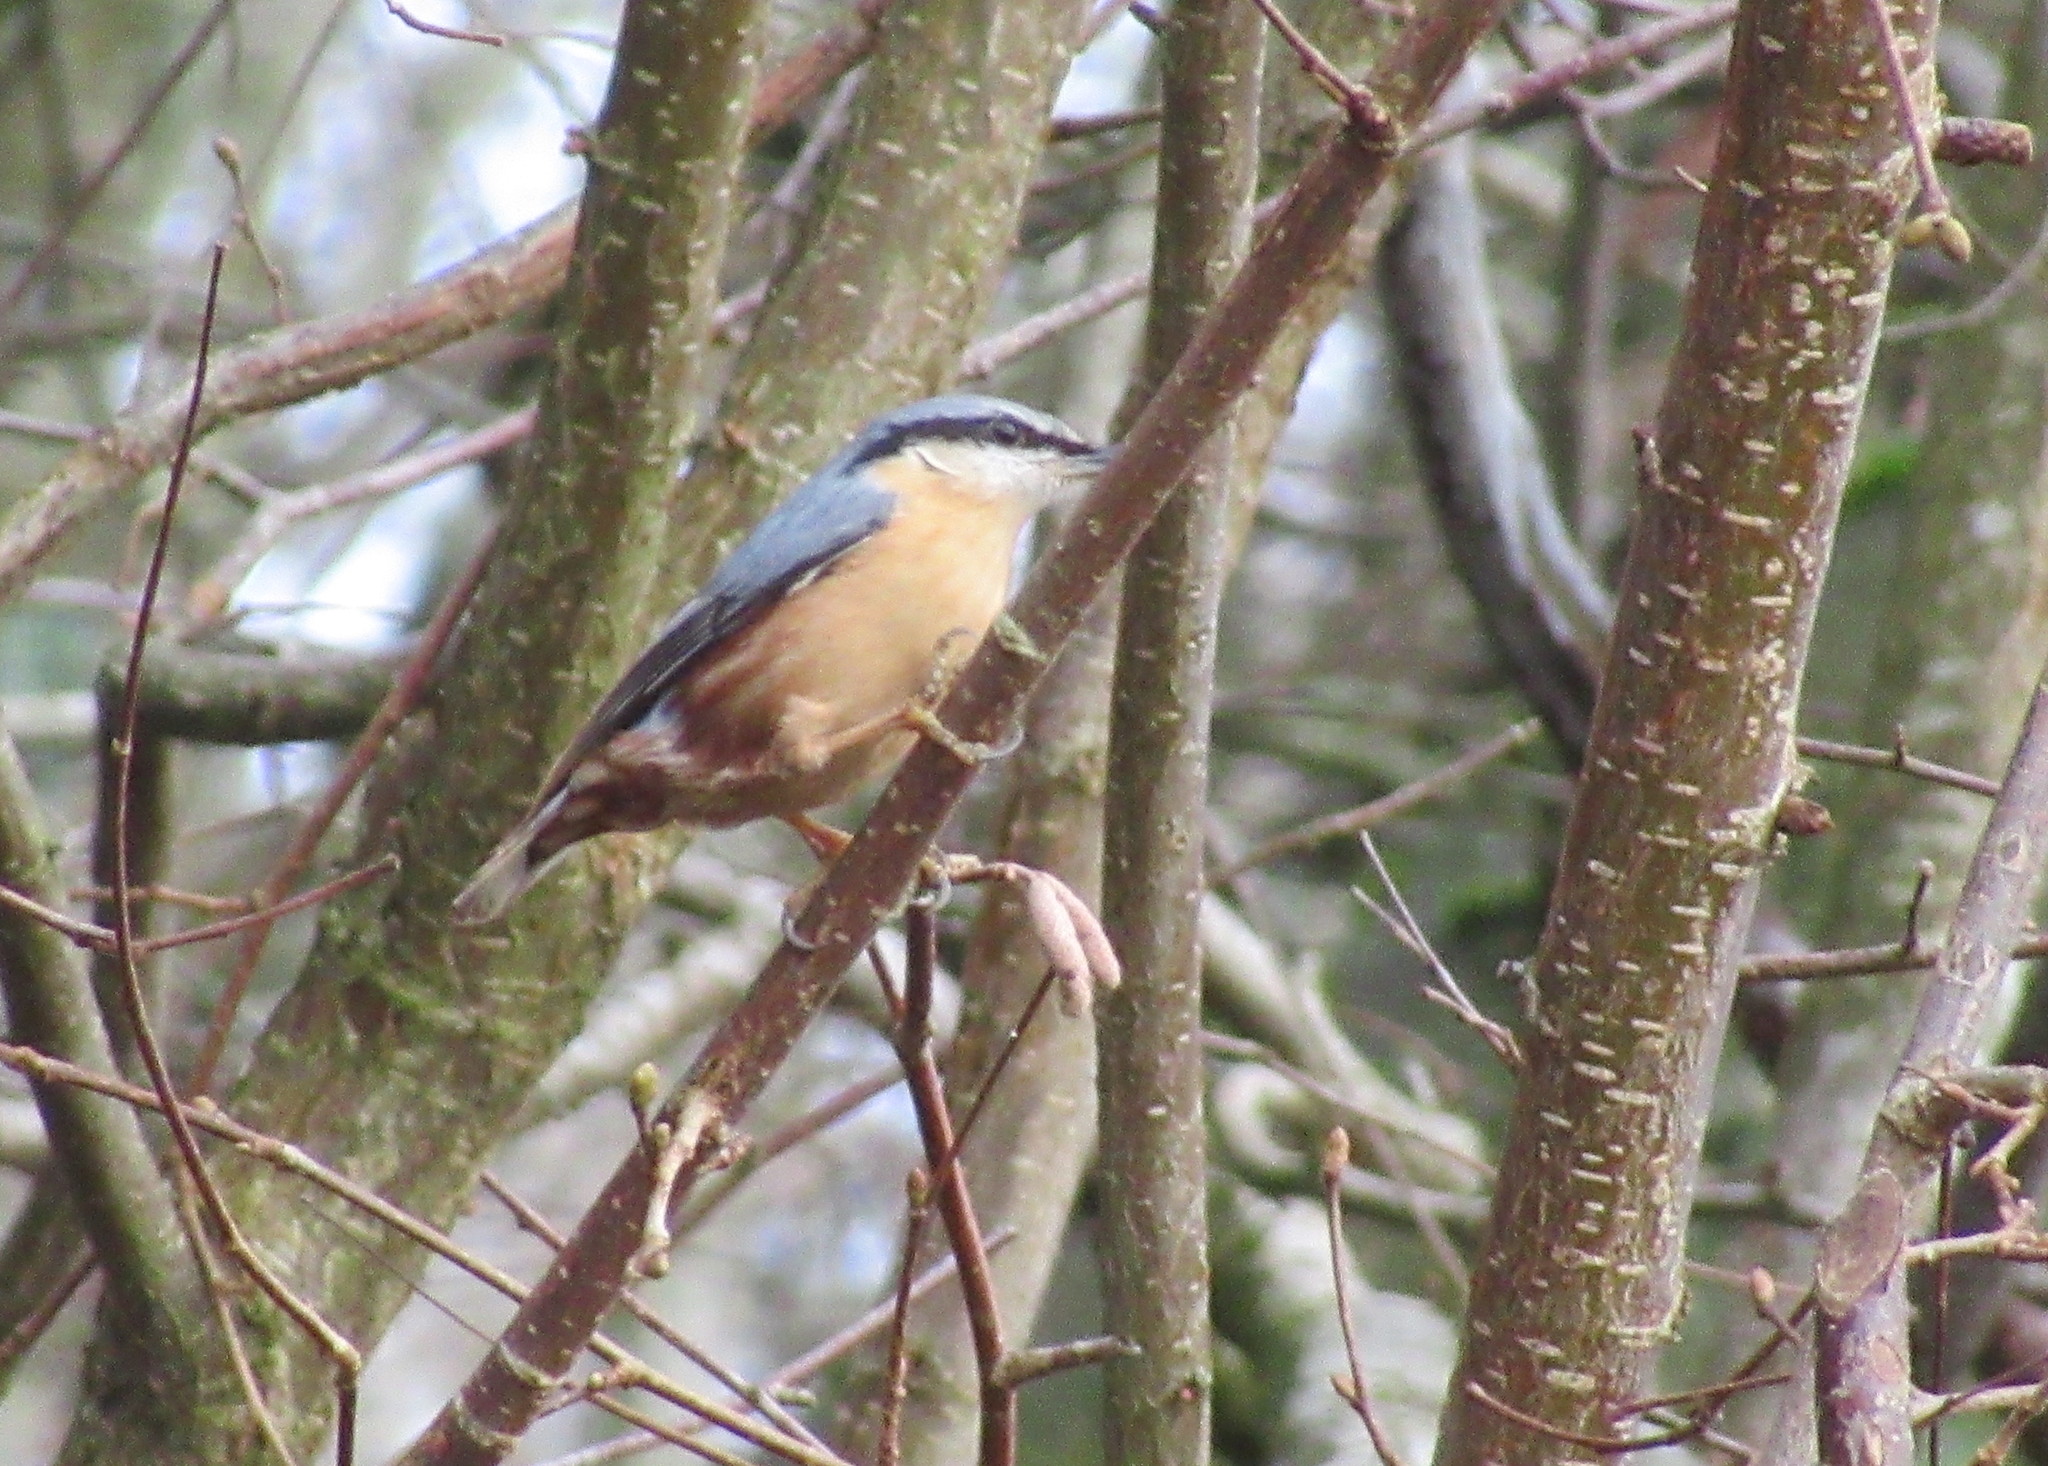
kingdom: Animalia
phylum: Chordata
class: Aves
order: Passeriformes
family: Sittidae
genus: Sitta
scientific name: Sitta europaea
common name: Eurasian nuthatch
